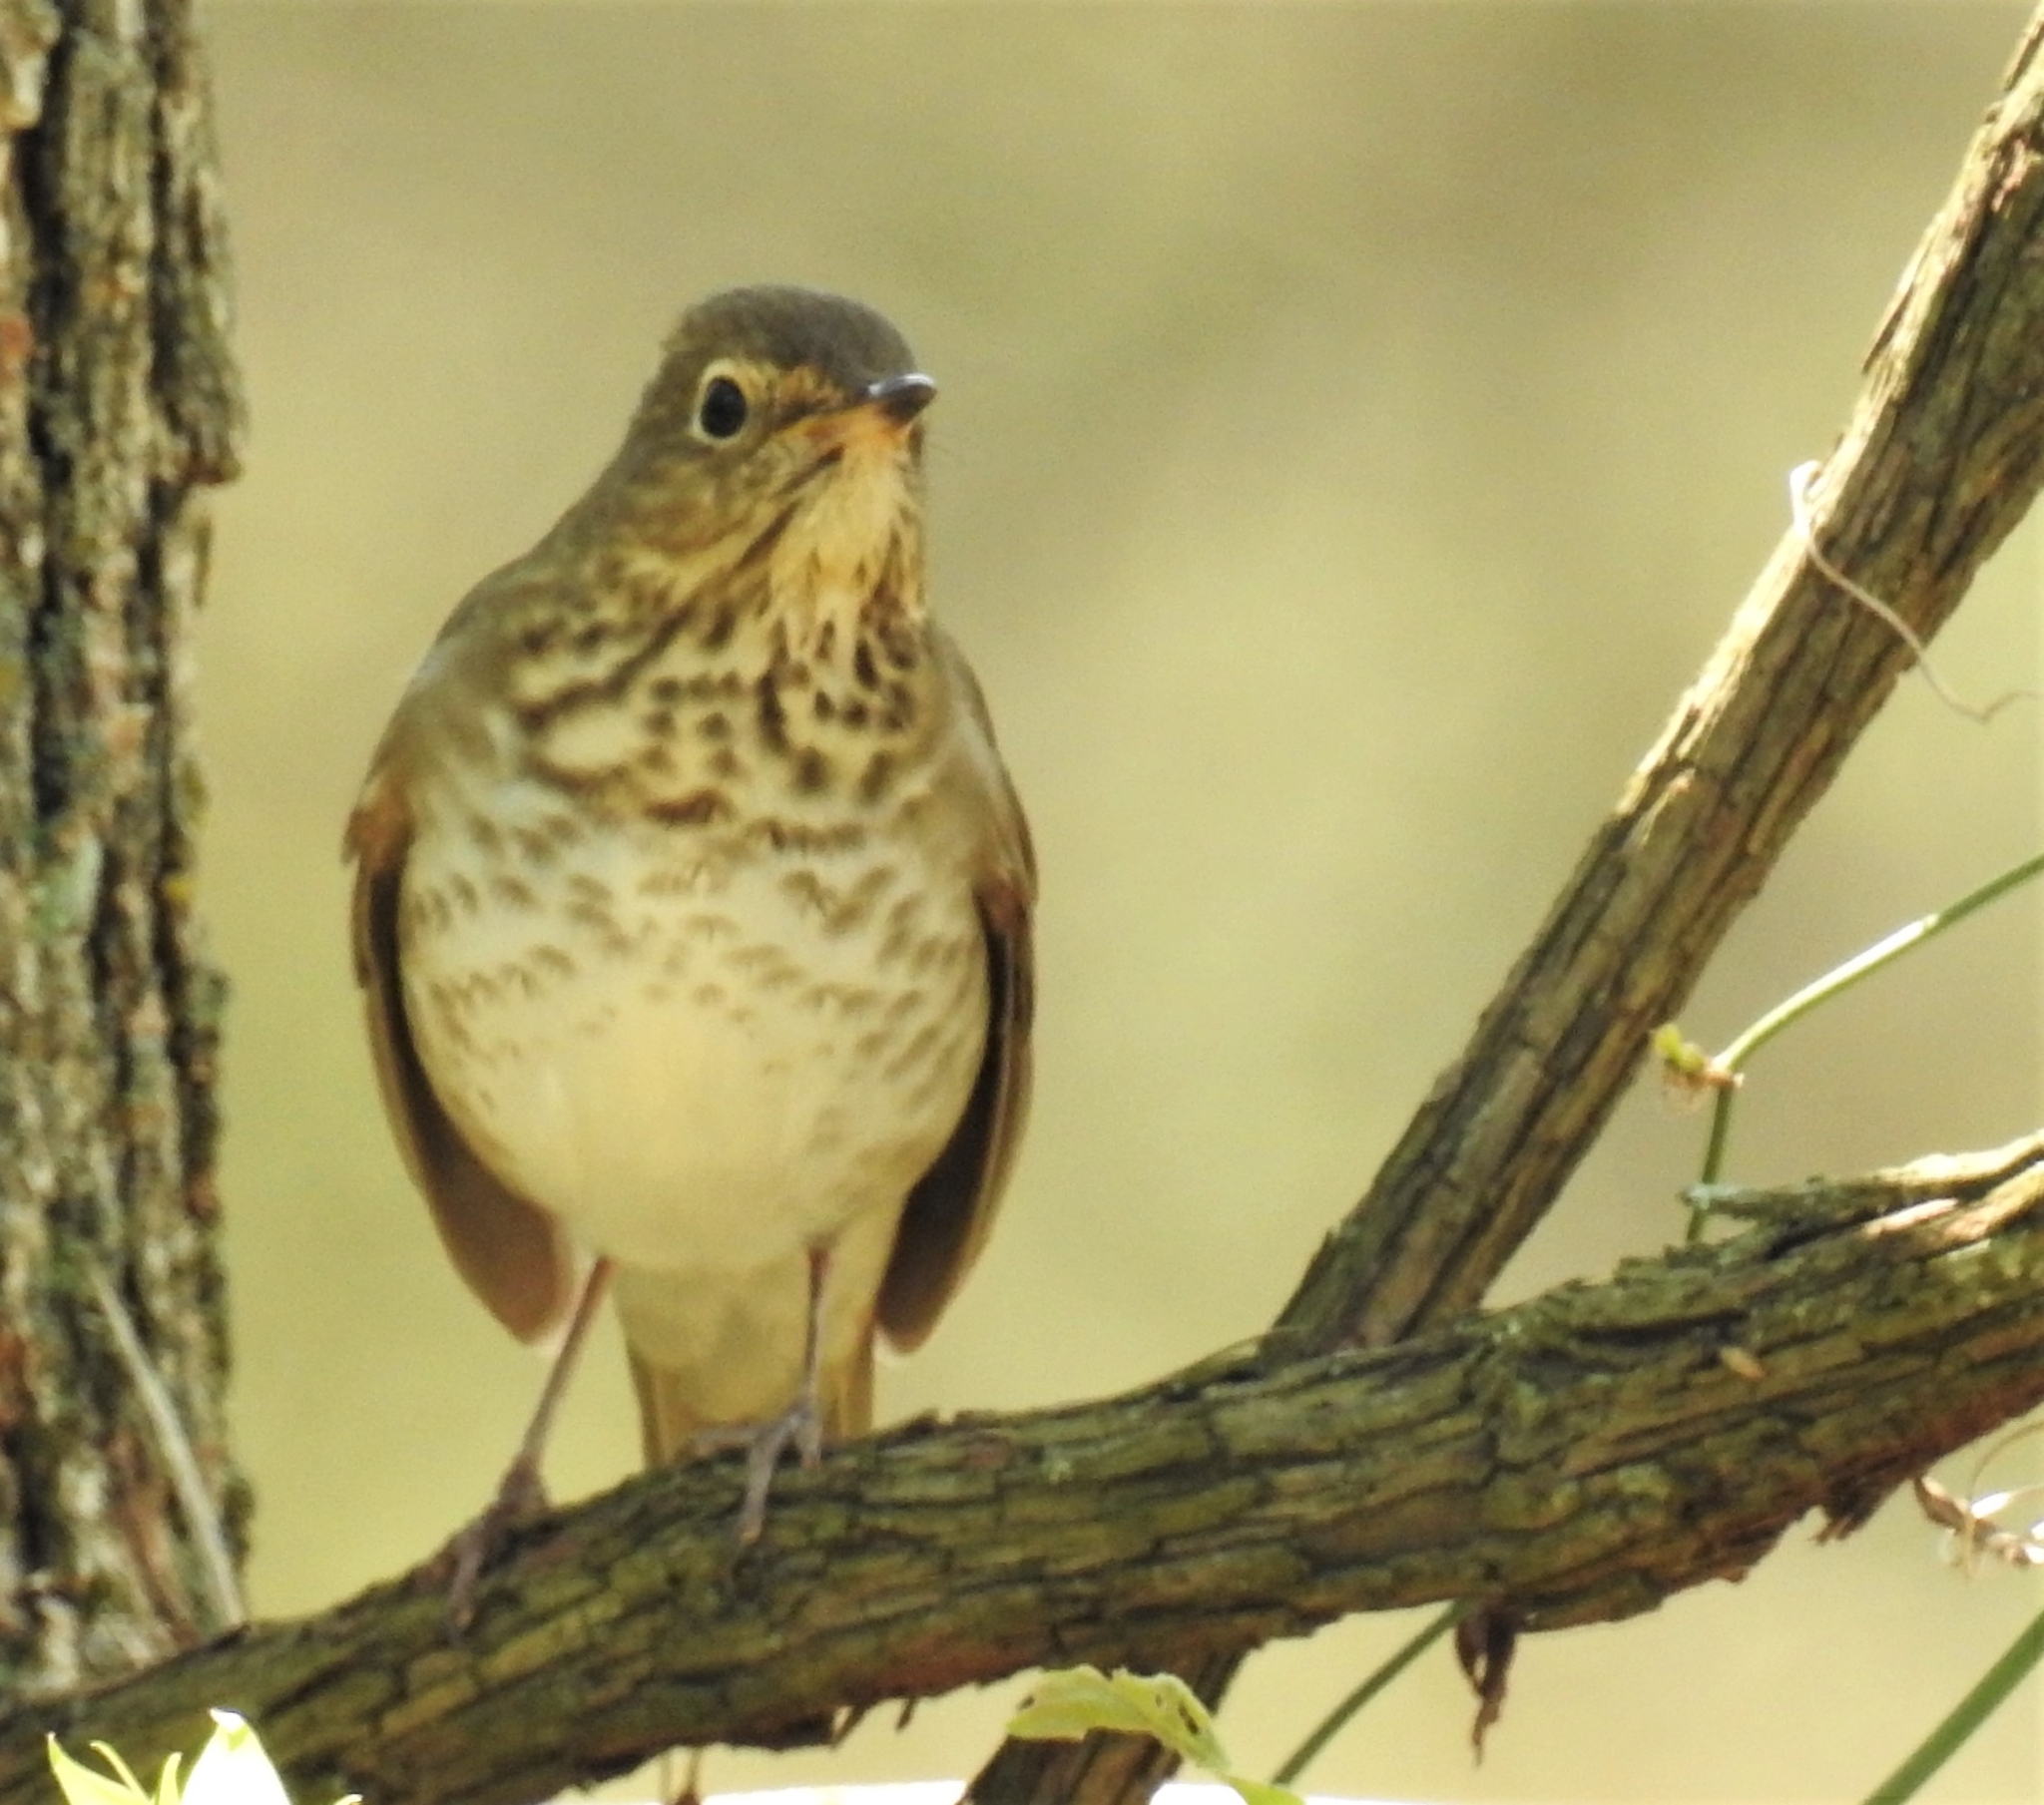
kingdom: Animalia
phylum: Chordata
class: Aves
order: Passeriformes
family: Turdidae
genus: Catharus
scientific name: Catharus ustulatus
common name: Swainson's thrush
